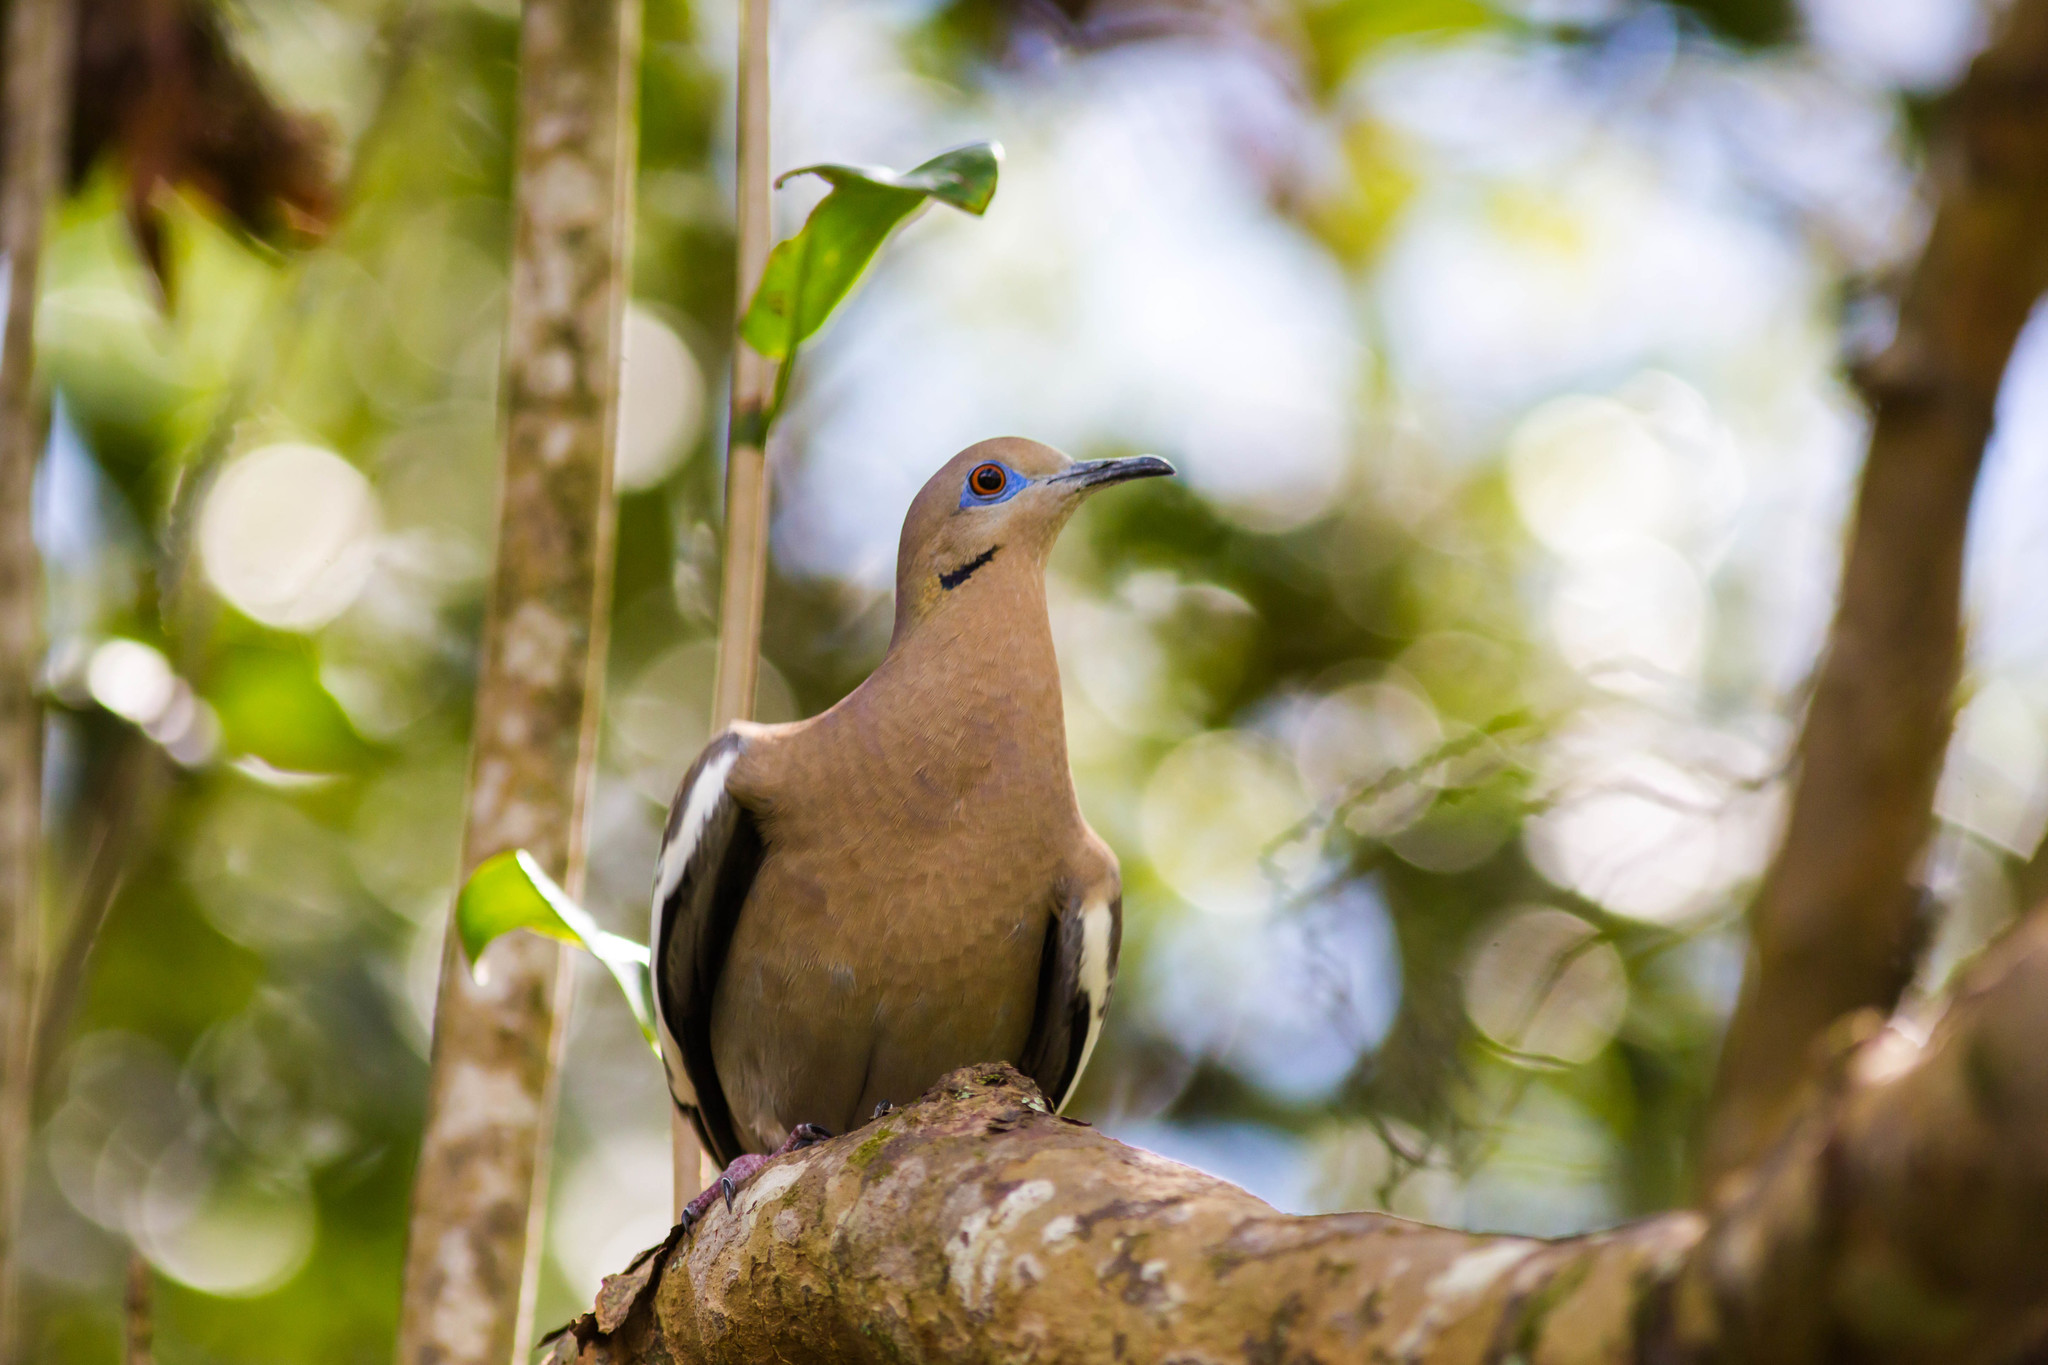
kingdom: Animalia
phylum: Chordata
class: Aves
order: Columbiformes
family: Columbidae
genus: Zenaida
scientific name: Zenaida asiatica
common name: White-winged dove
